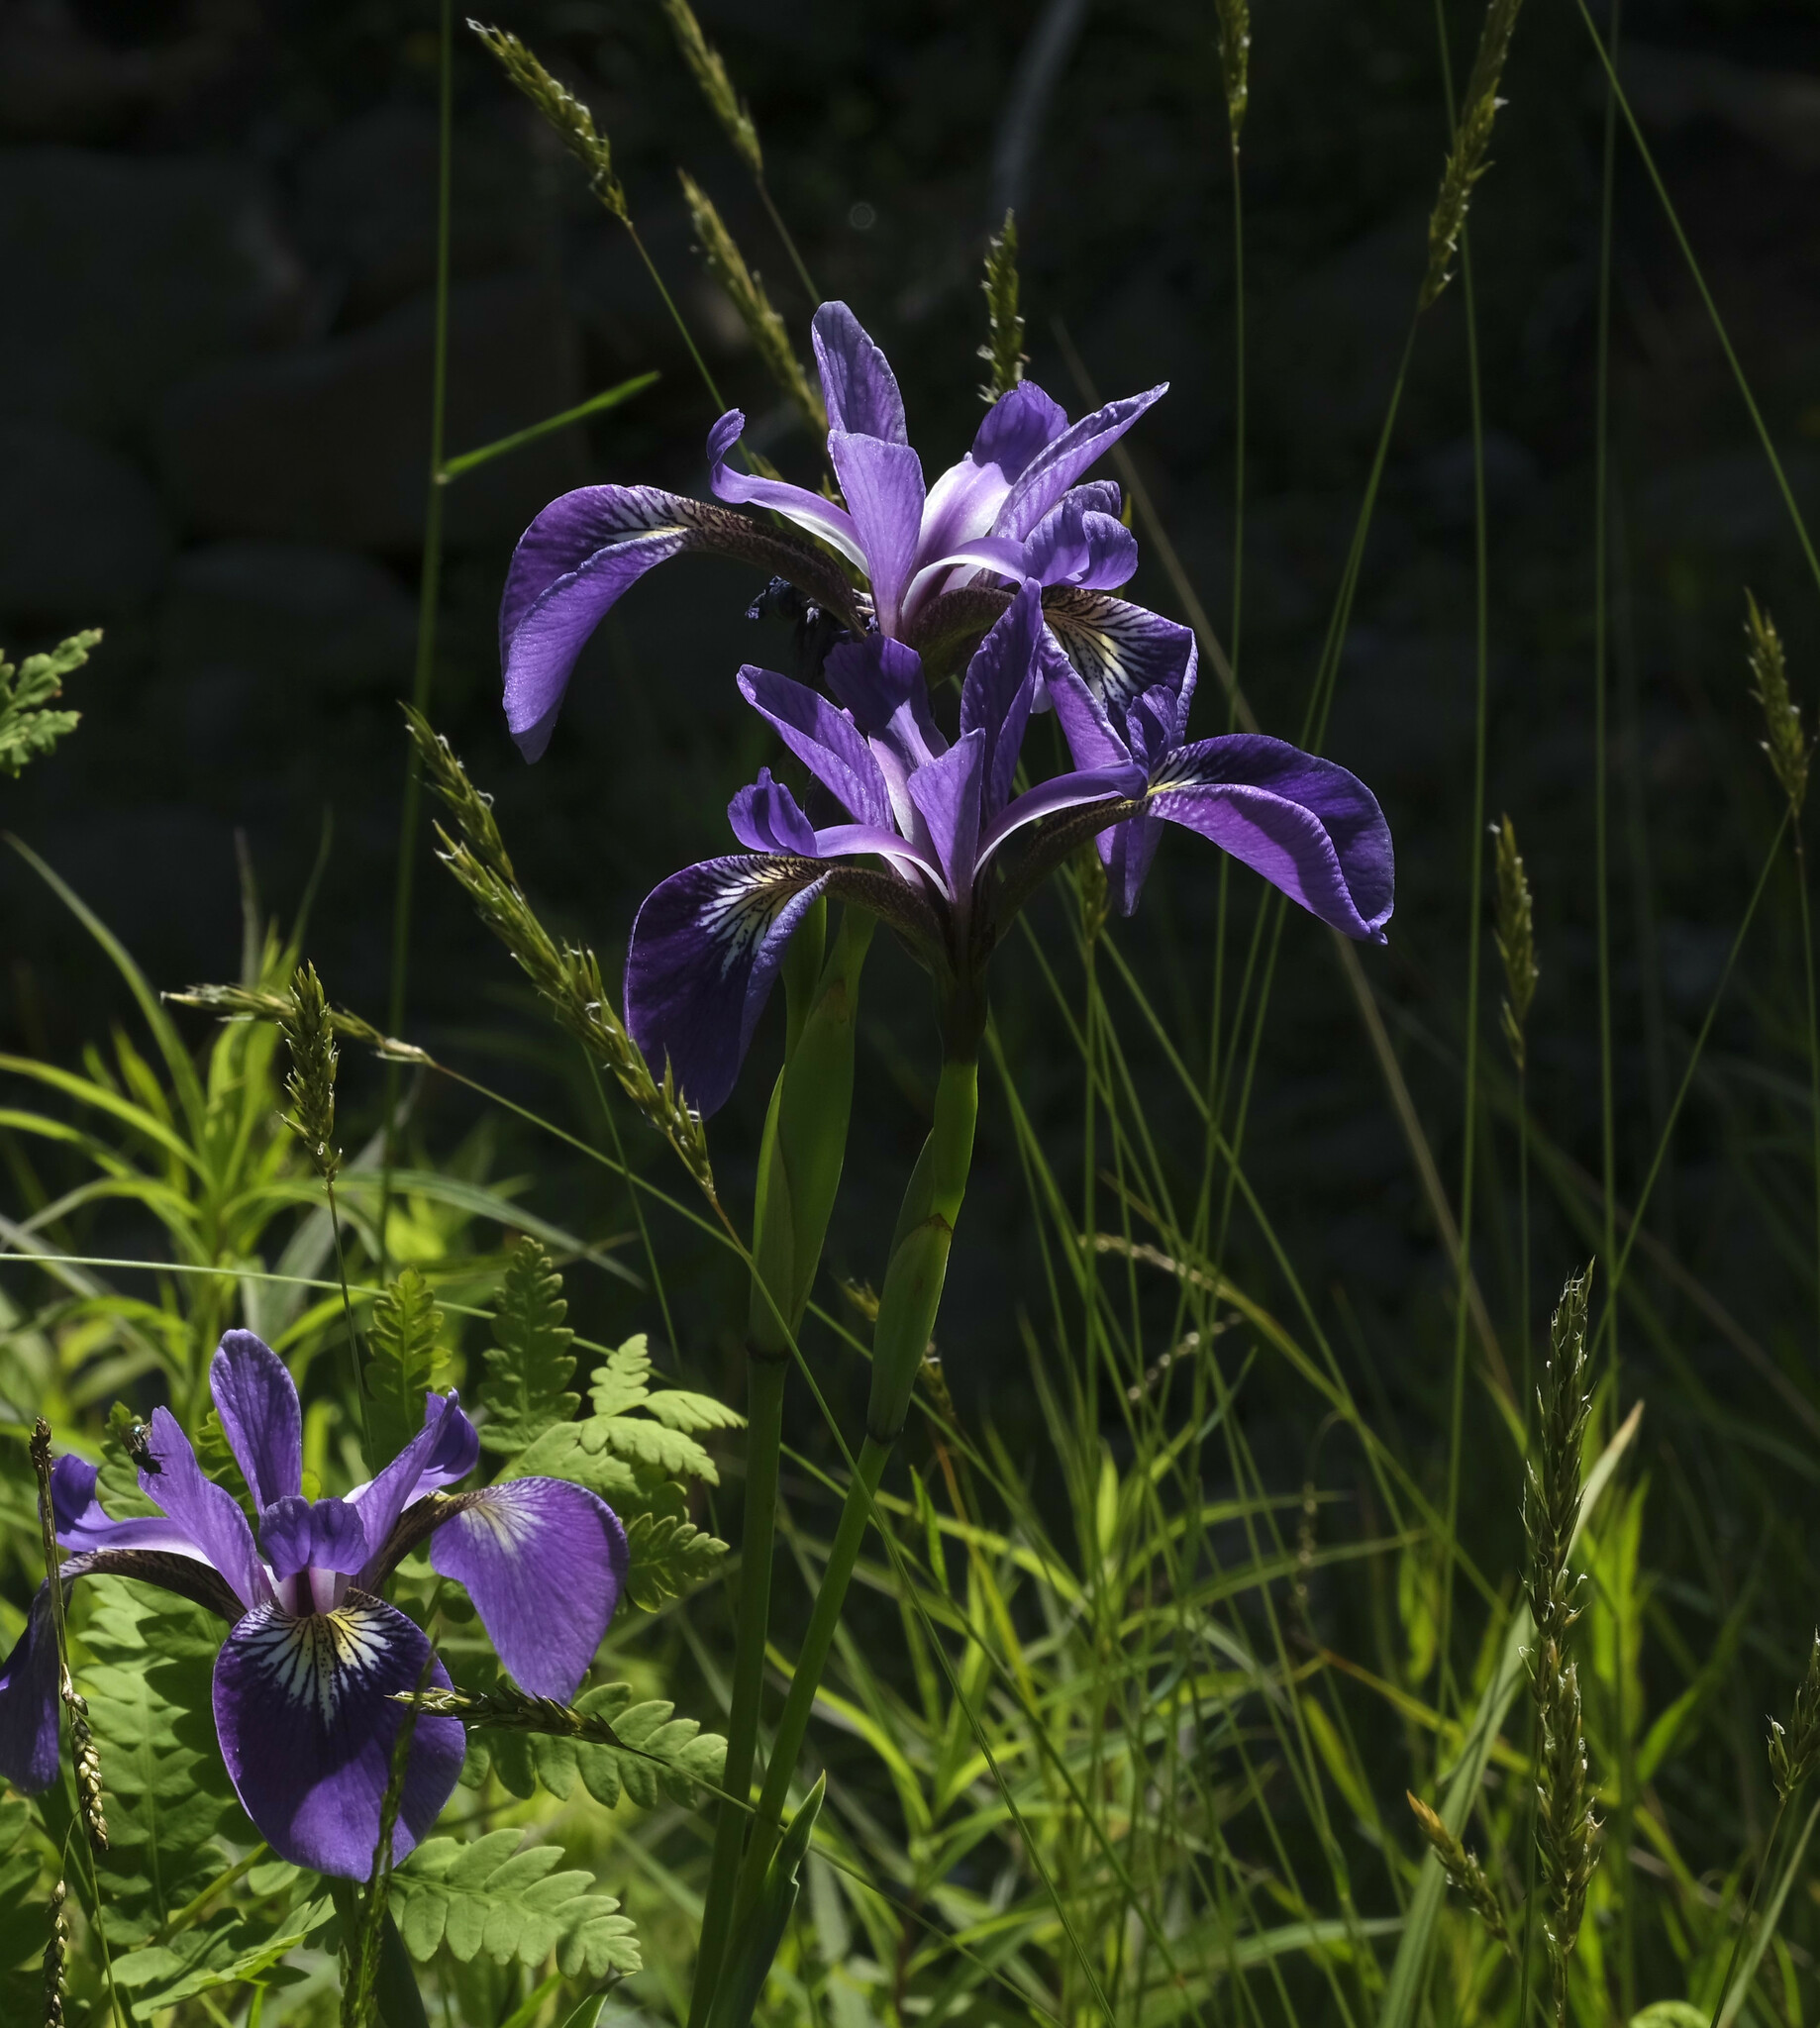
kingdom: Plantae
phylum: Tracheophyta
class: Liliopsida
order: Asparagales
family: Iridaceae
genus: Iris
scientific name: Iris versicolor
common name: Purple iris
